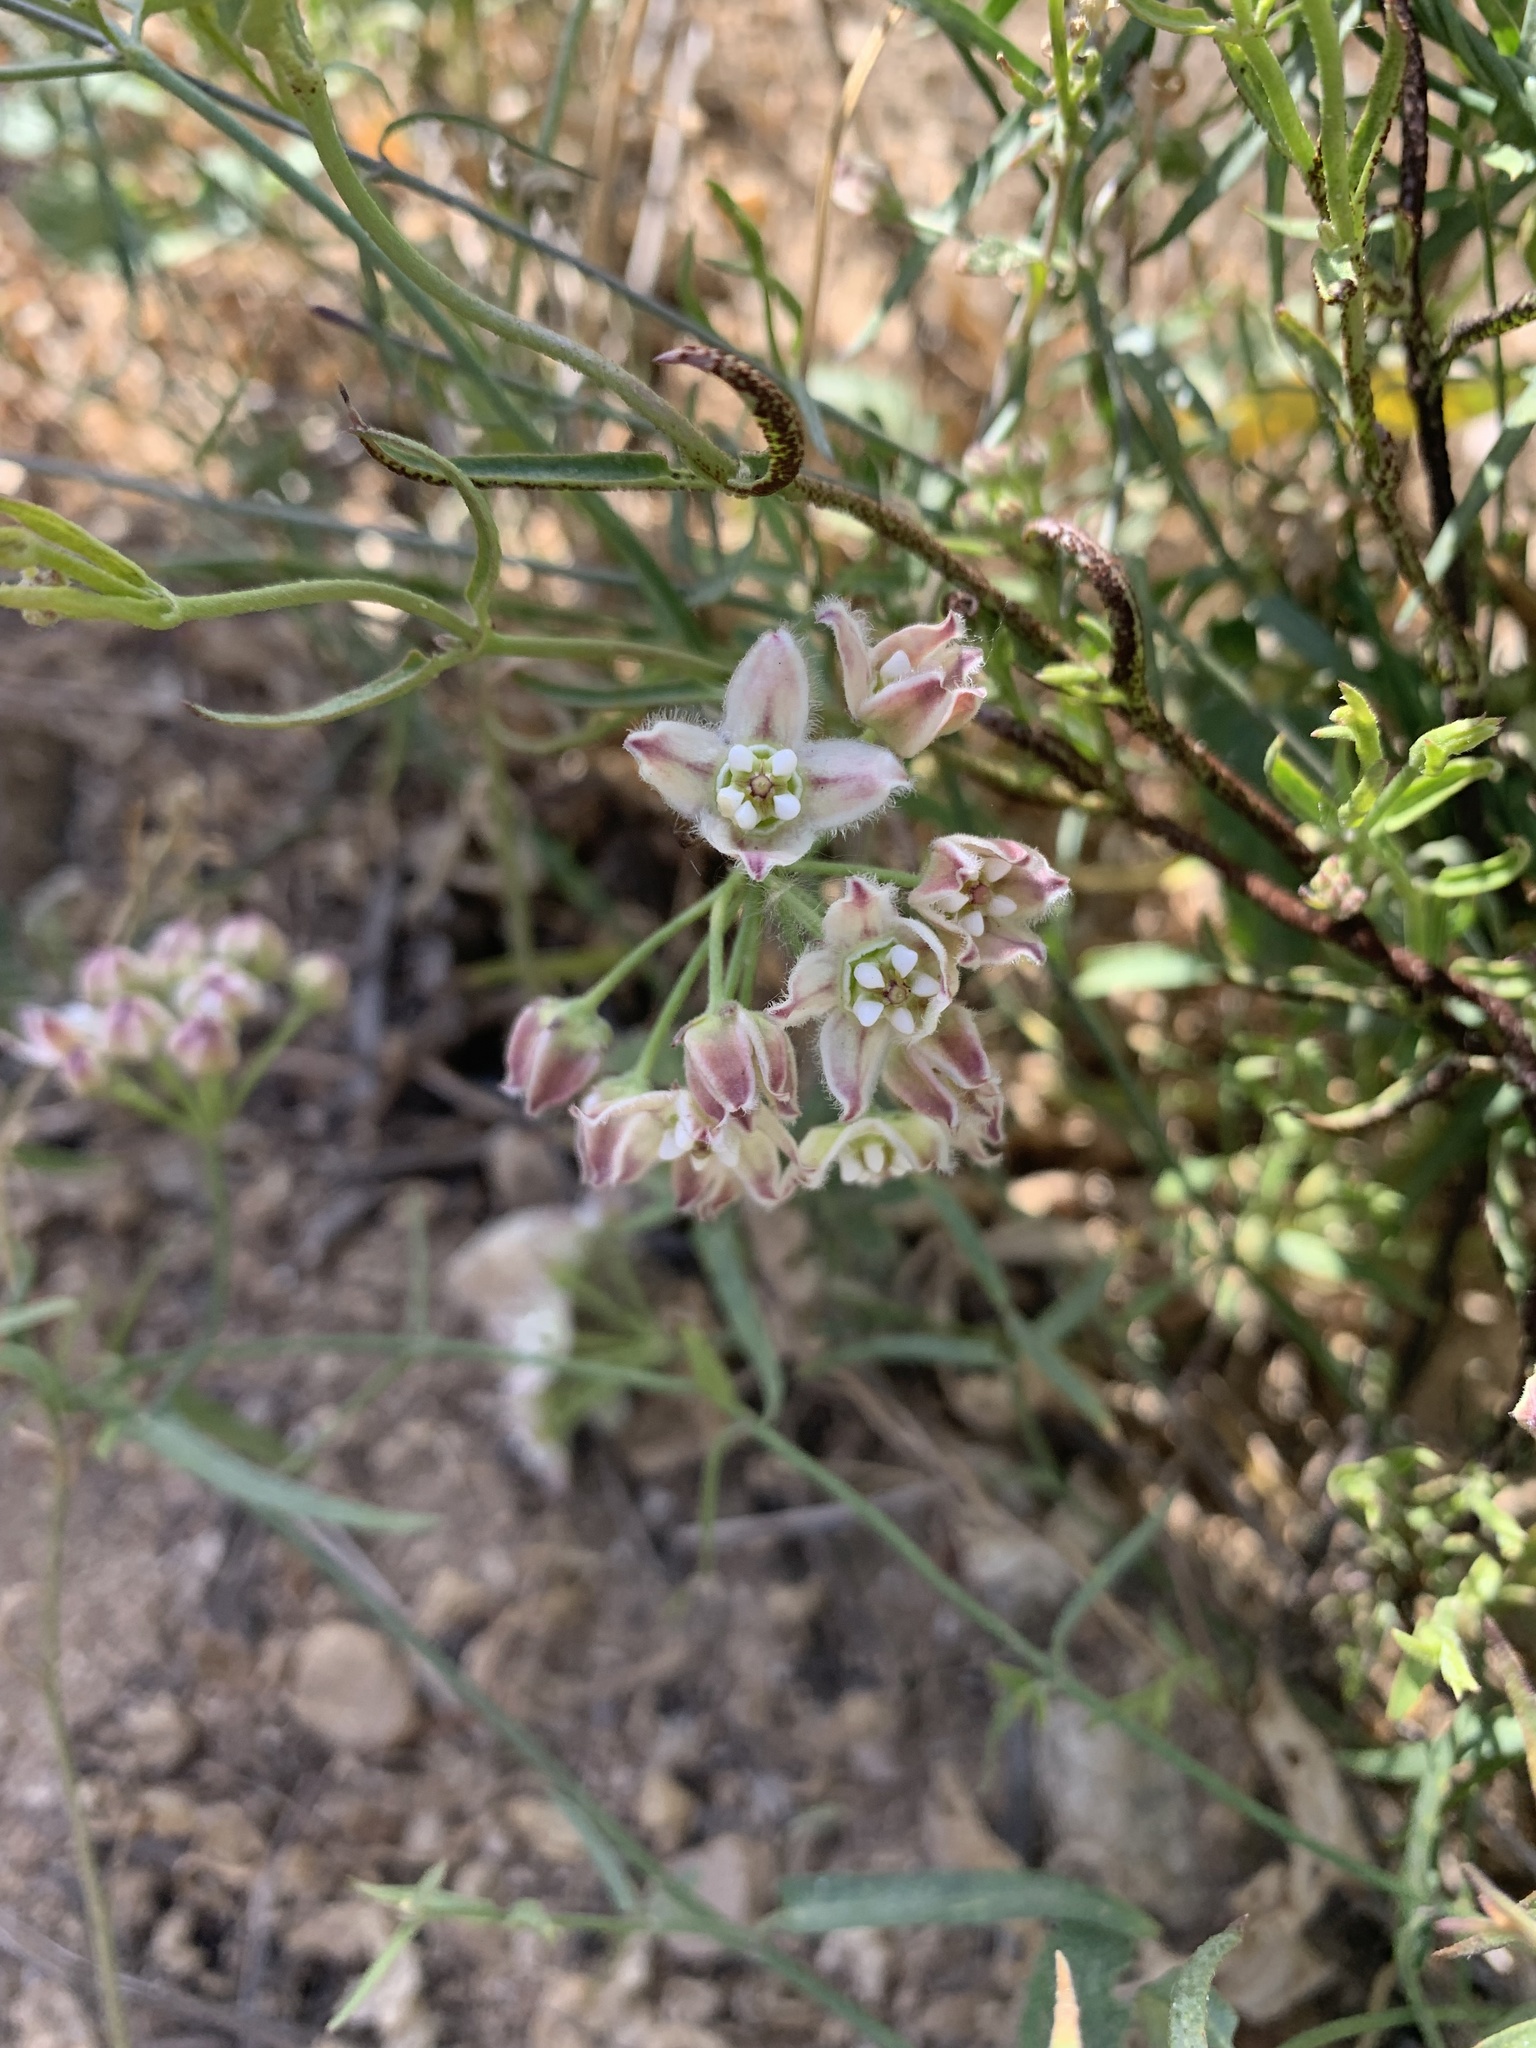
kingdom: Plantae
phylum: Tracheophyta
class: Magnoliopsida
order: Gentianales
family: Apocynaceae
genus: Funastrum
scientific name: Funastrum heterophyllum
